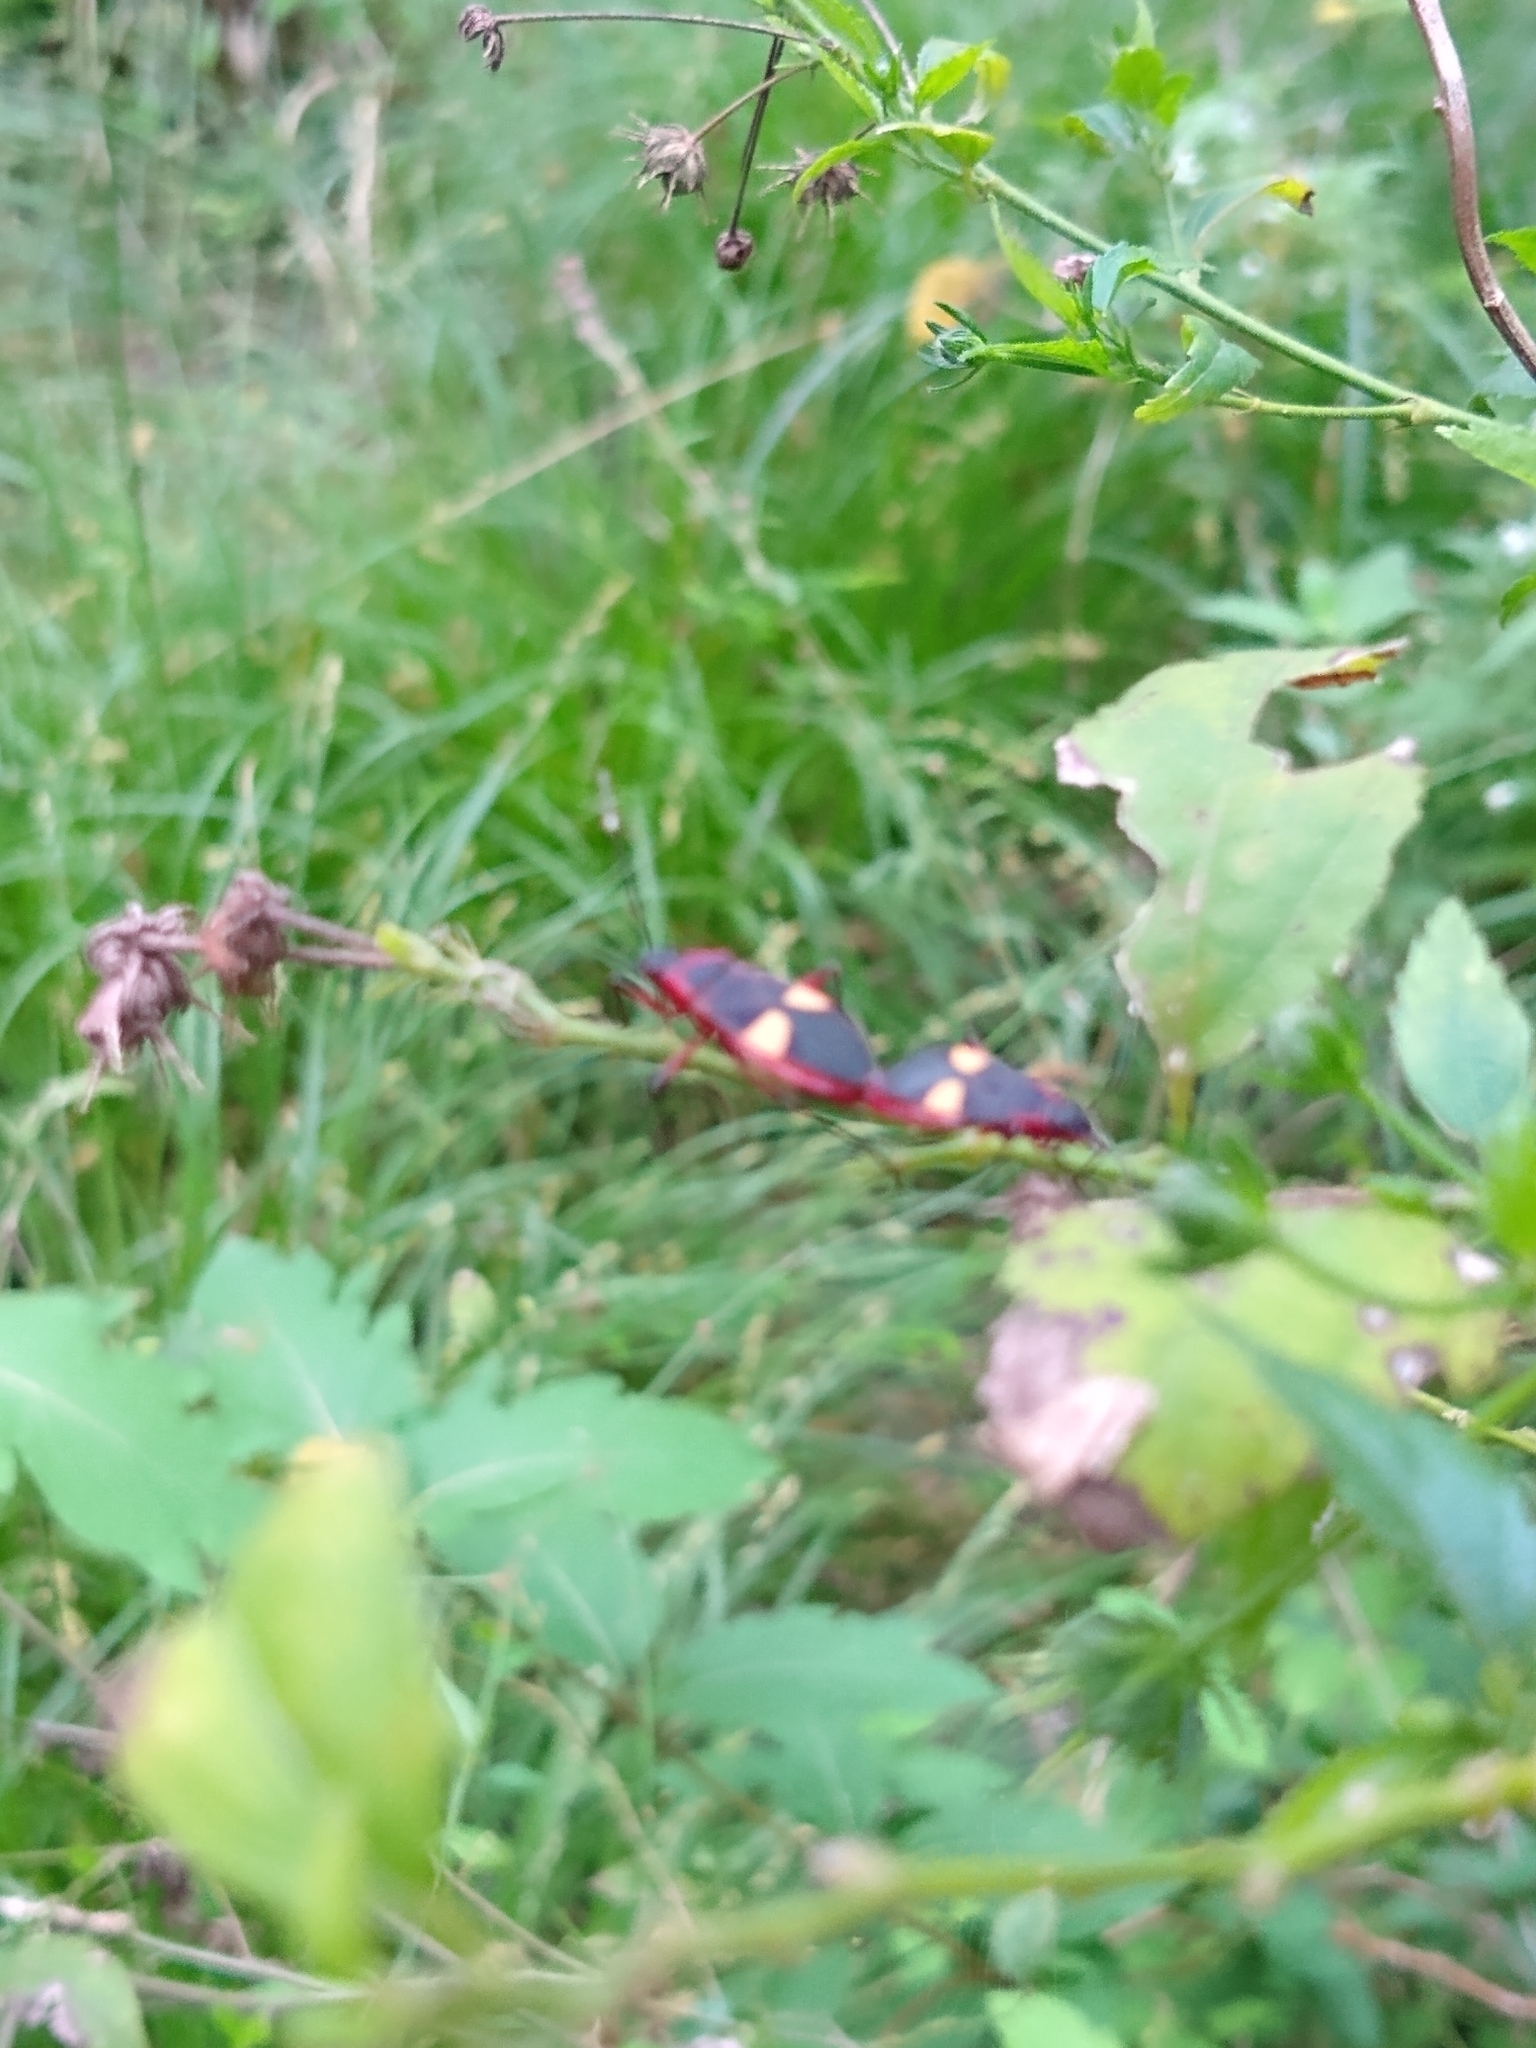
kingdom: Animalia
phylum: Arthropoda
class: Insecta
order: Hemiptera
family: Pyrrhocoridae
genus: Dysdercus
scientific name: Dysdercus albofasciatus
